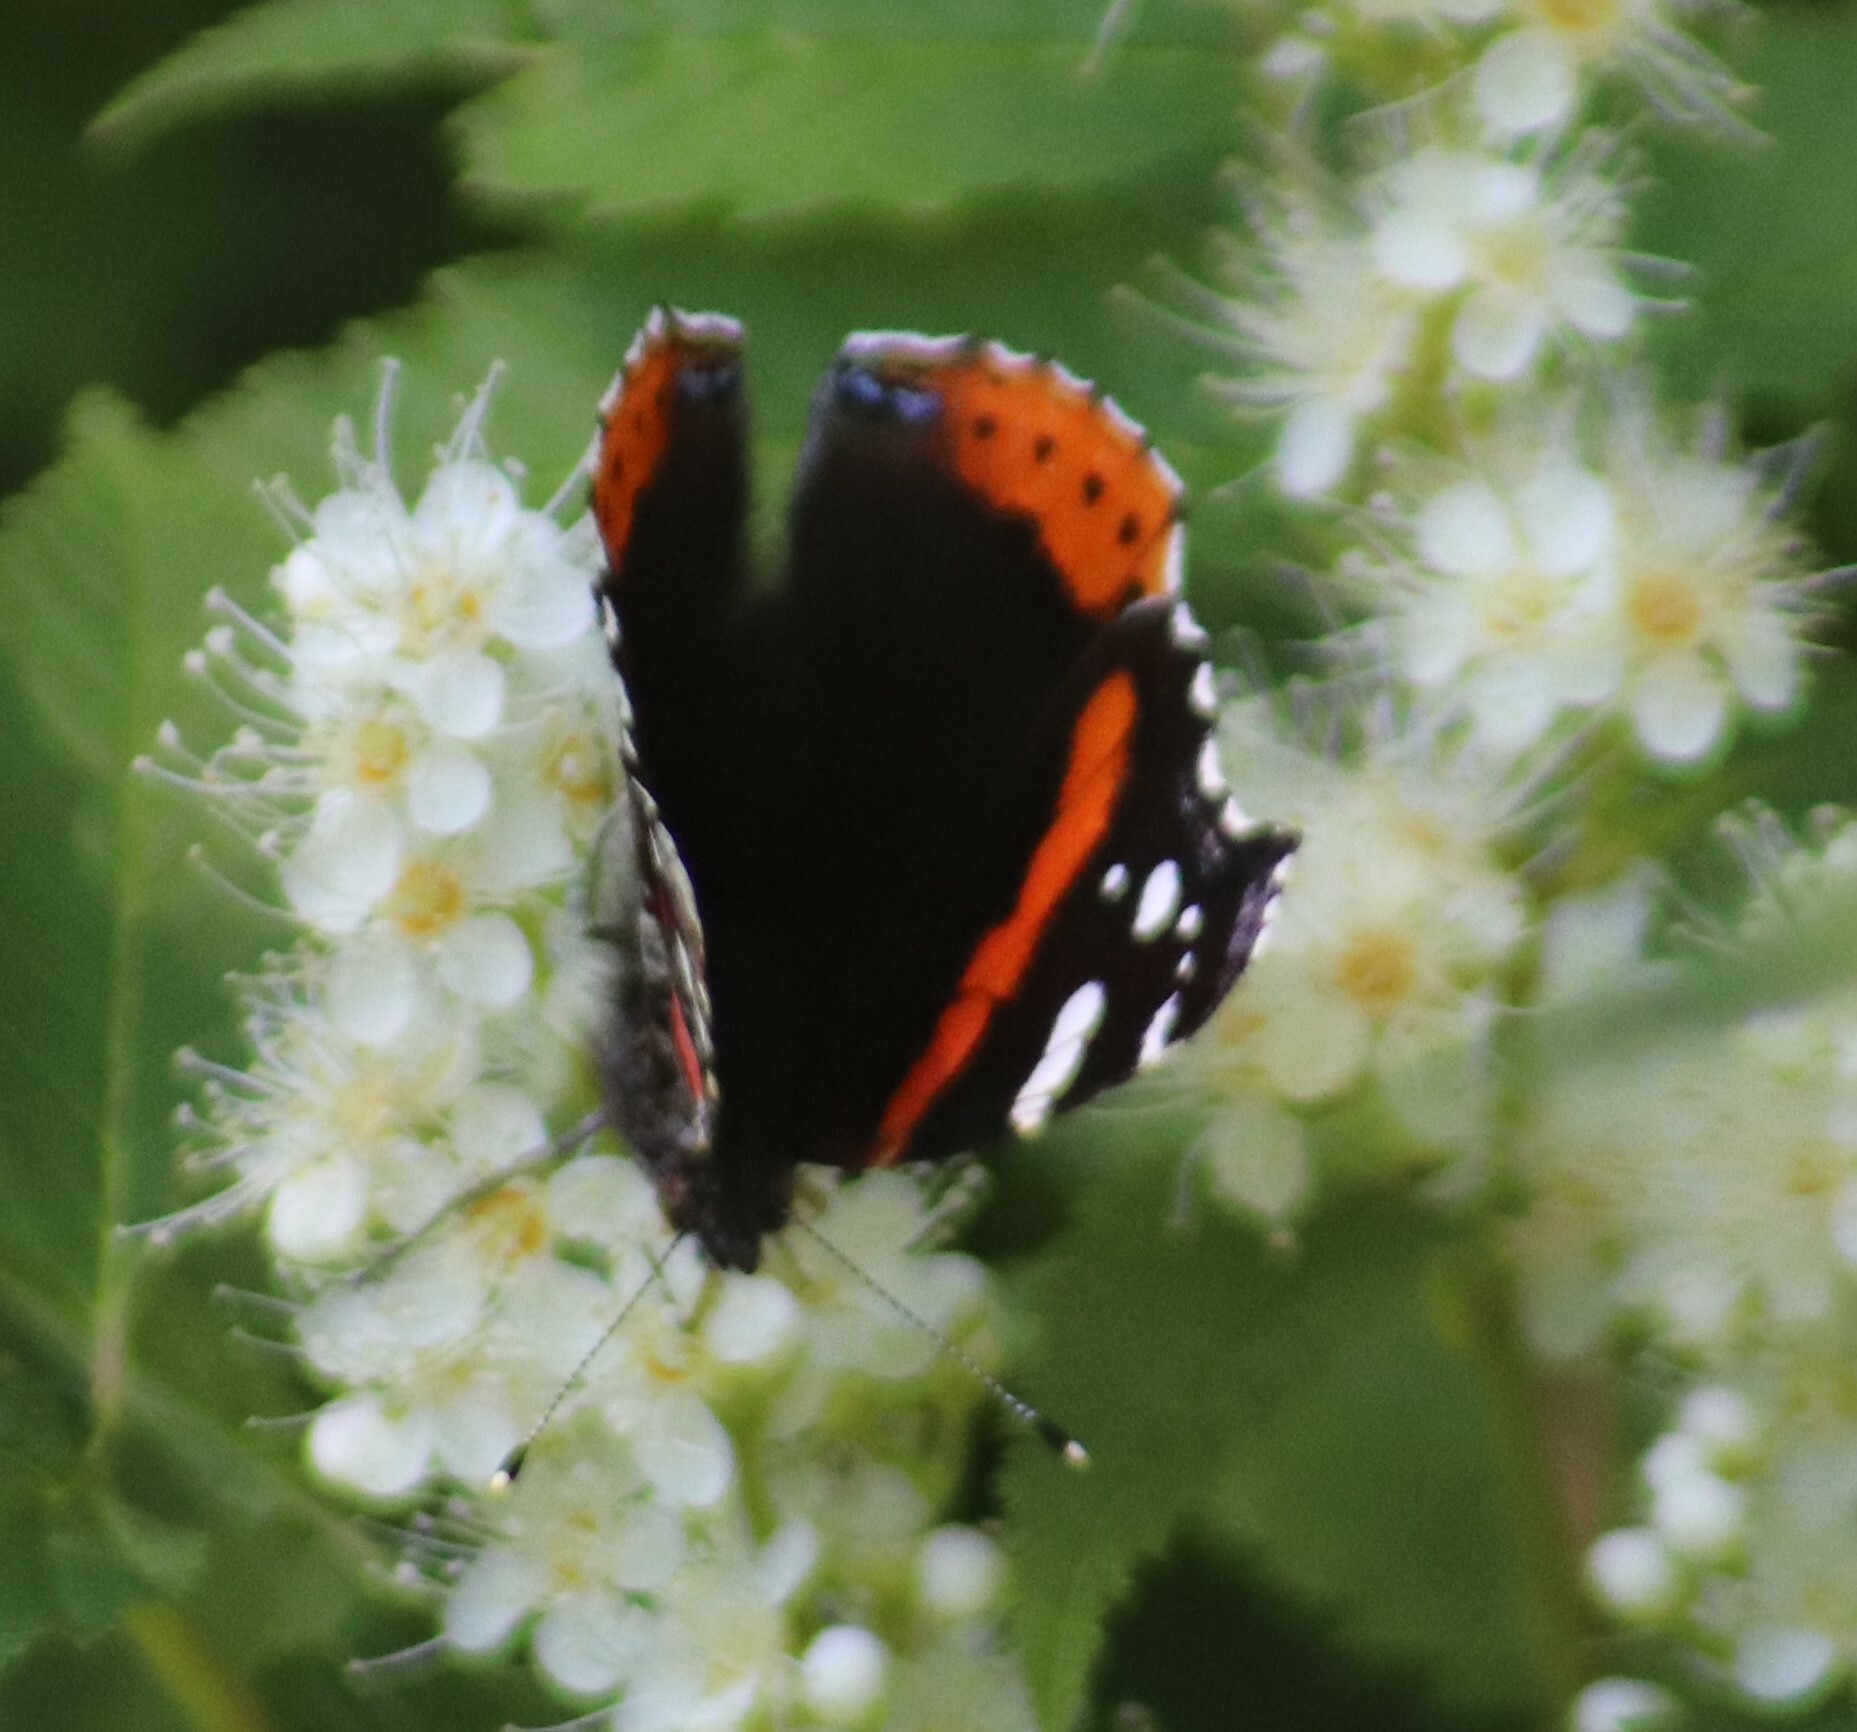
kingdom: Animalia
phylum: Arthropoda
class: Insecta
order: Lepidoptera
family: Nymphalidae
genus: Vanessa
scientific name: Vanessa atalanta
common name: Red admiral
